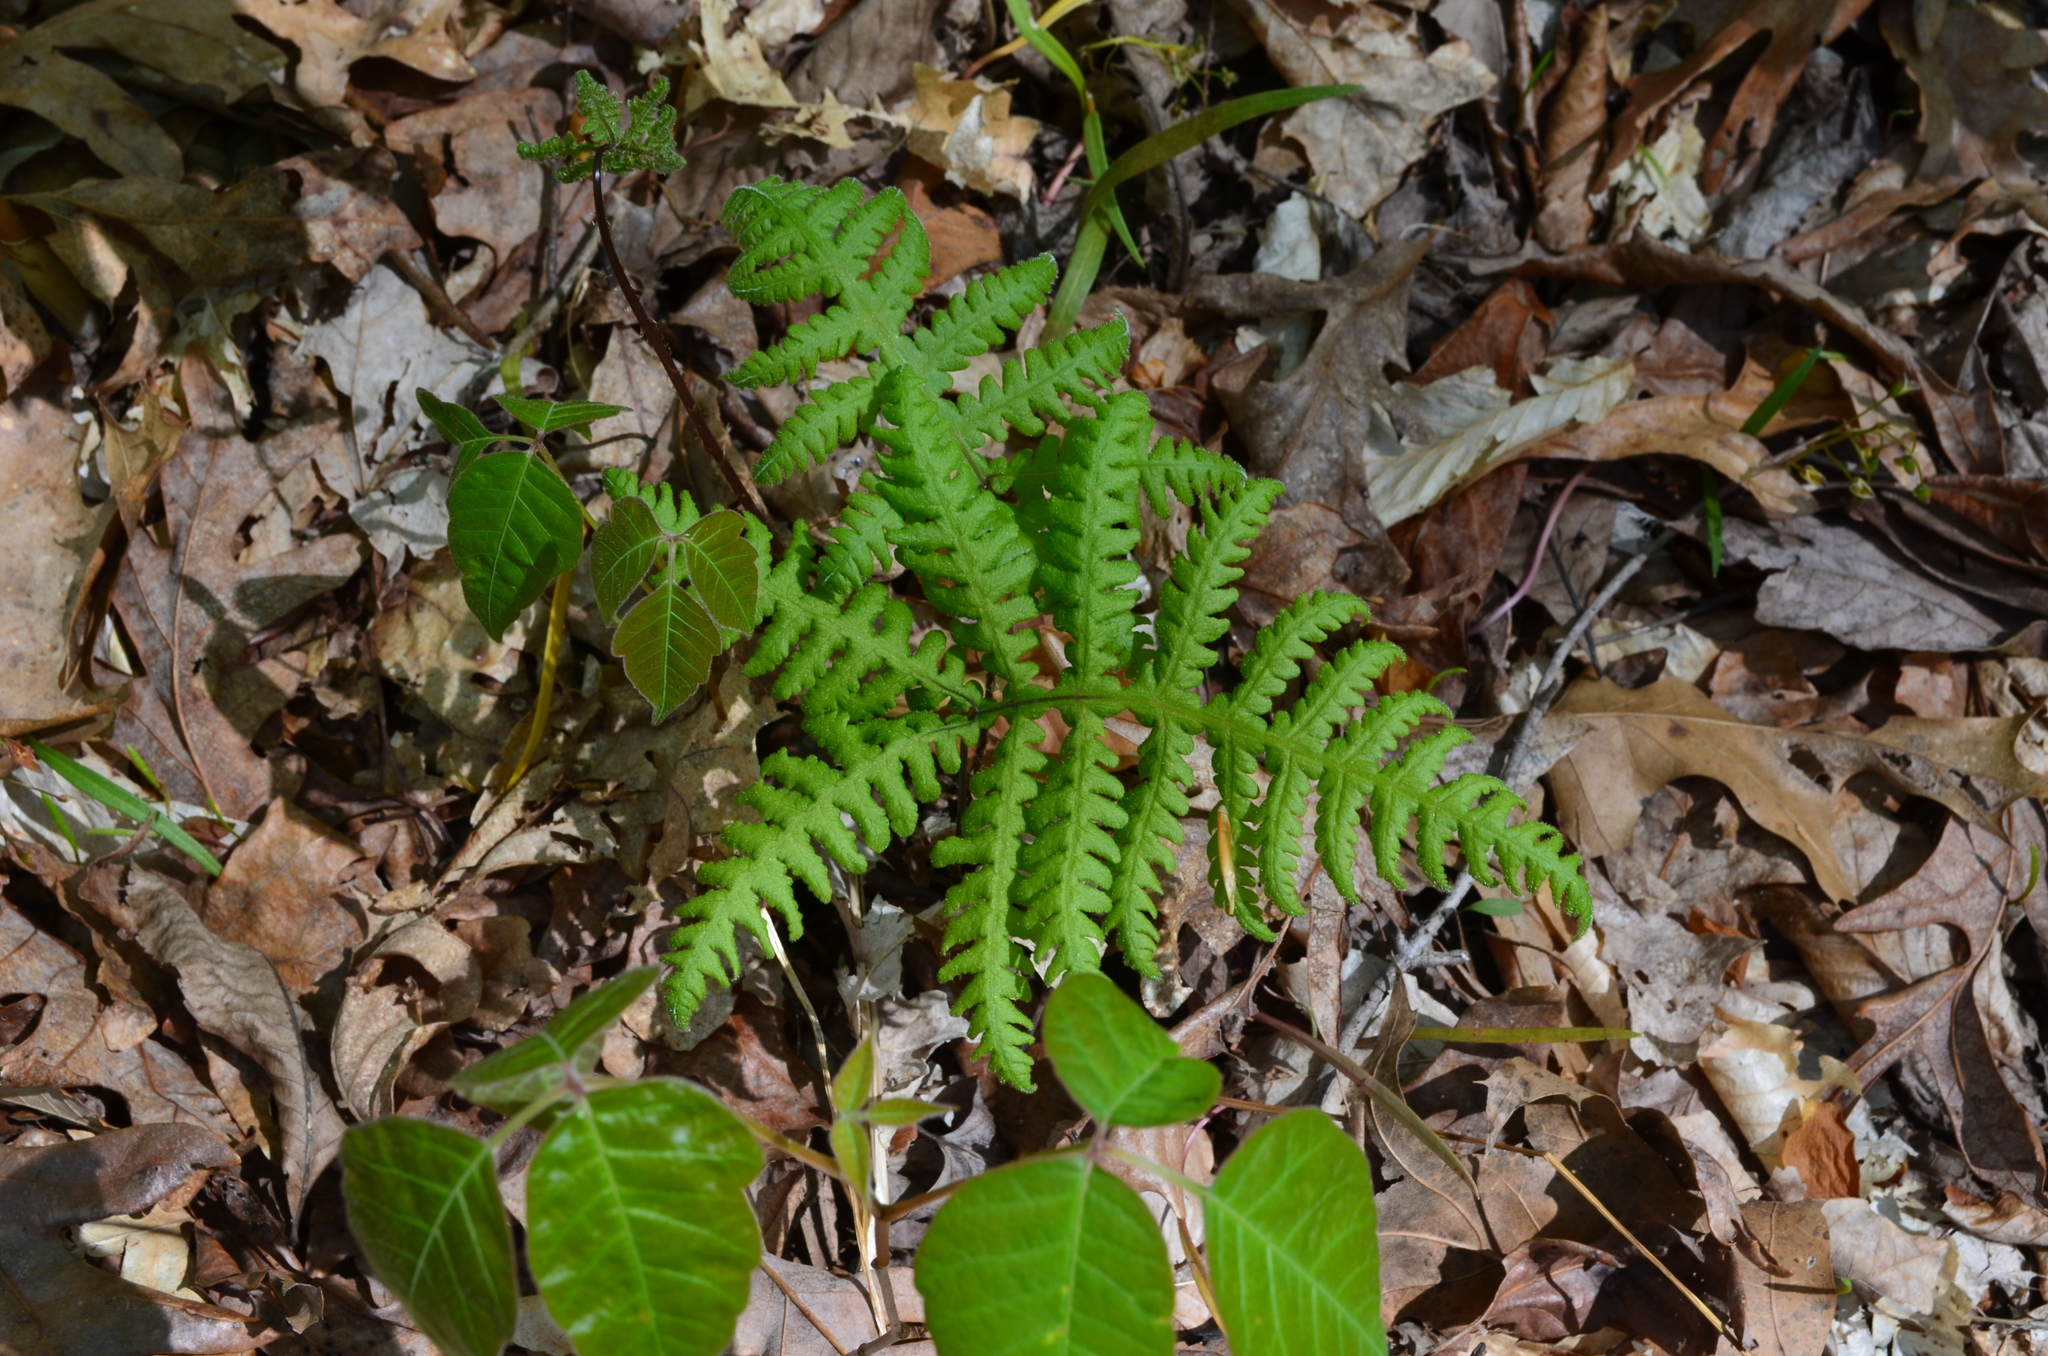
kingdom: Plantae
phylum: Tracheophyta
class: Polypodiopsida
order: Polypodiales
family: Thelypteridaceae
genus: Phegopteris
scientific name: Phegopteris hexagonoptera
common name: Broad beech fern
